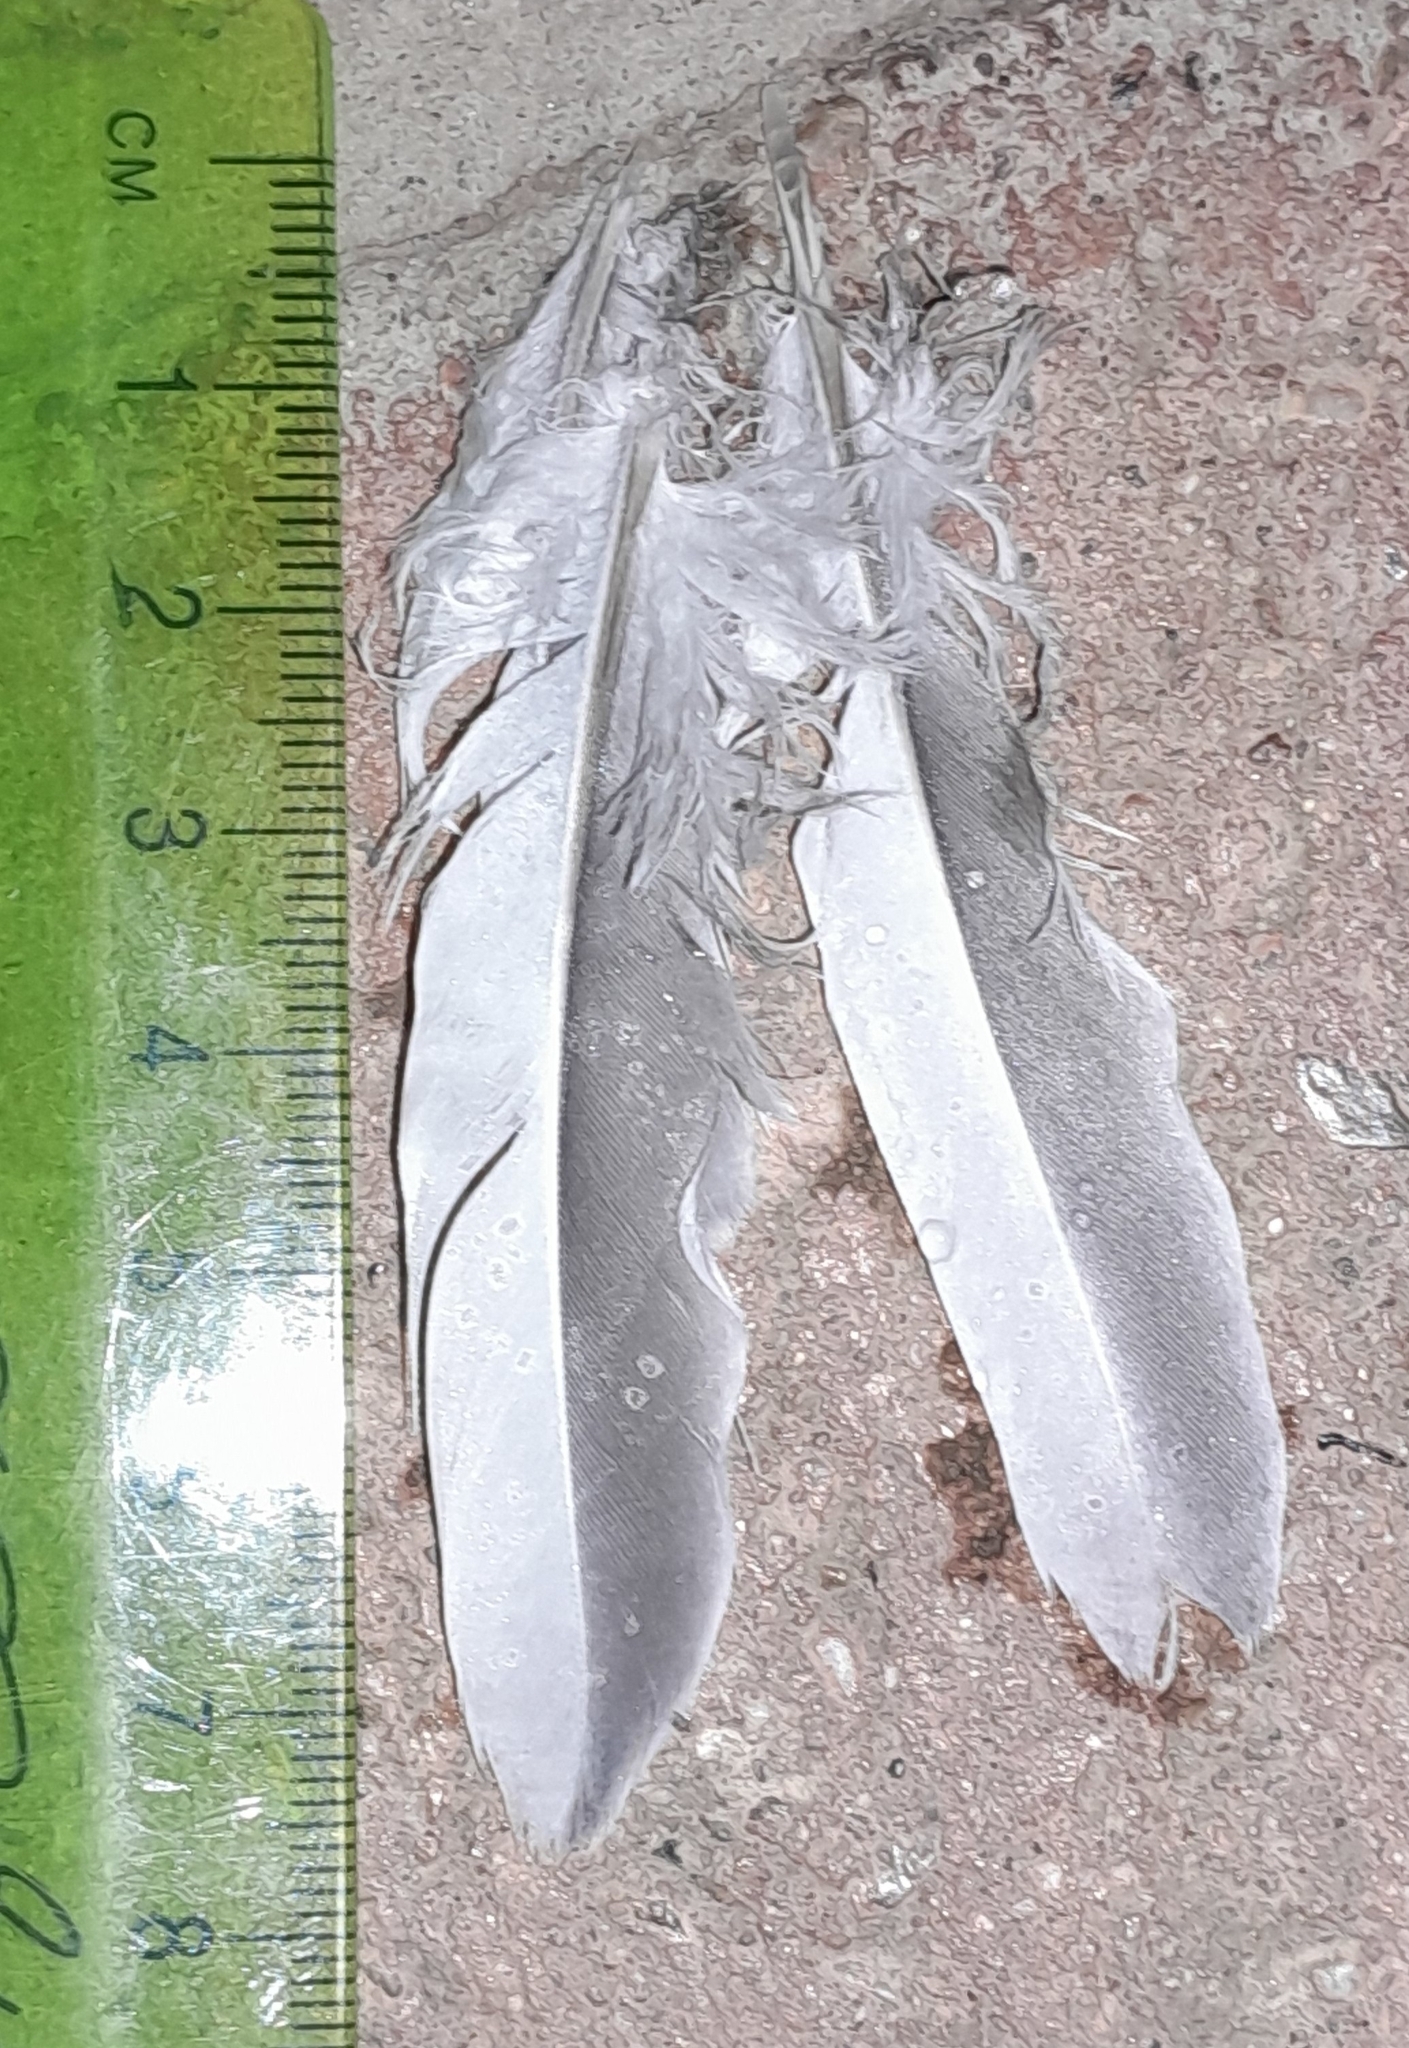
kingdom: Animalia
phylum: Chordata
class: Aves
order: Columbiformes
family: Columbidae
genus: Columba
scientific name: Columba palumbus
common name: Common wood pigeon
